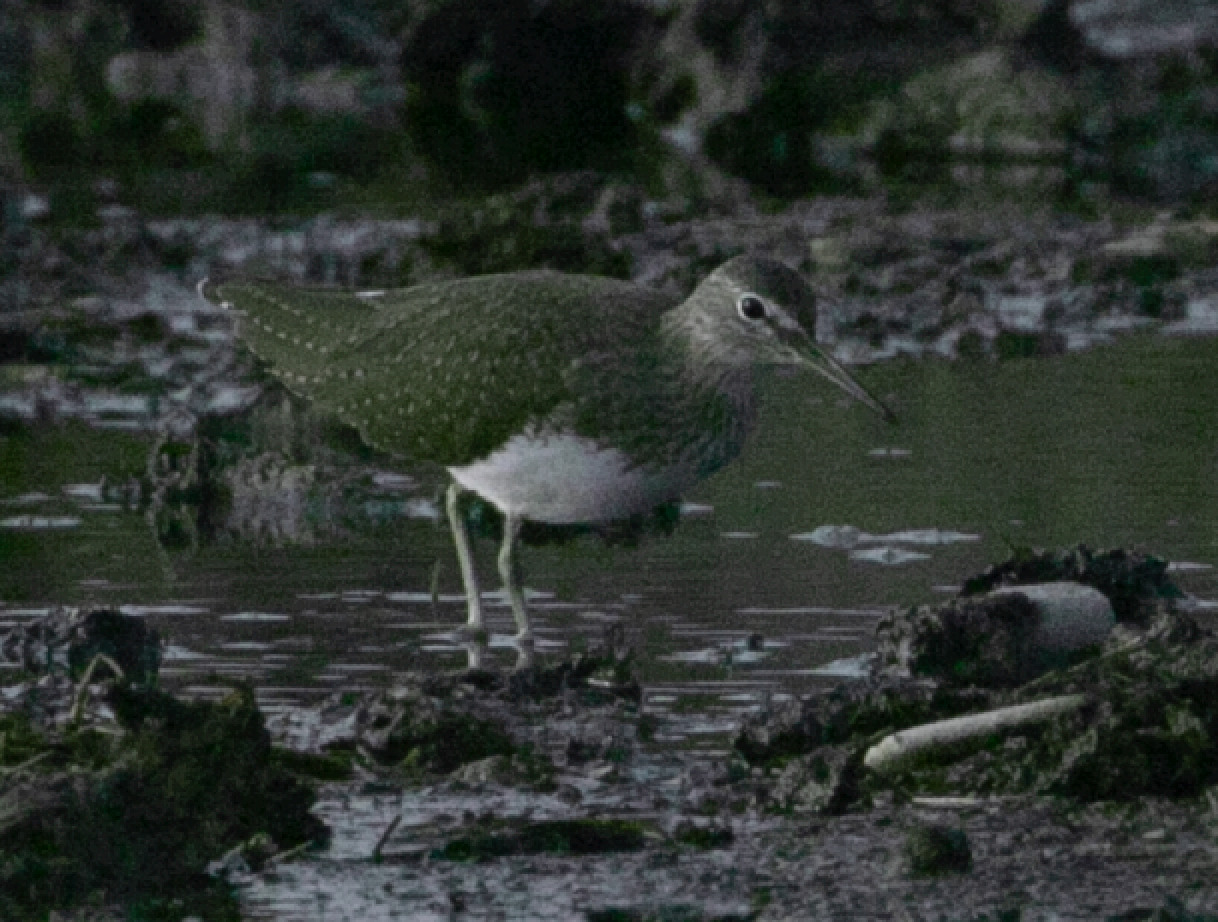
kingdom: Animalia
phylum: Chordata
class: Aves
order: Charadriiformes
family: Scolopacidae
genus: Tringa
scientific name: Tringa ochropus
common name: Green sandpiper
